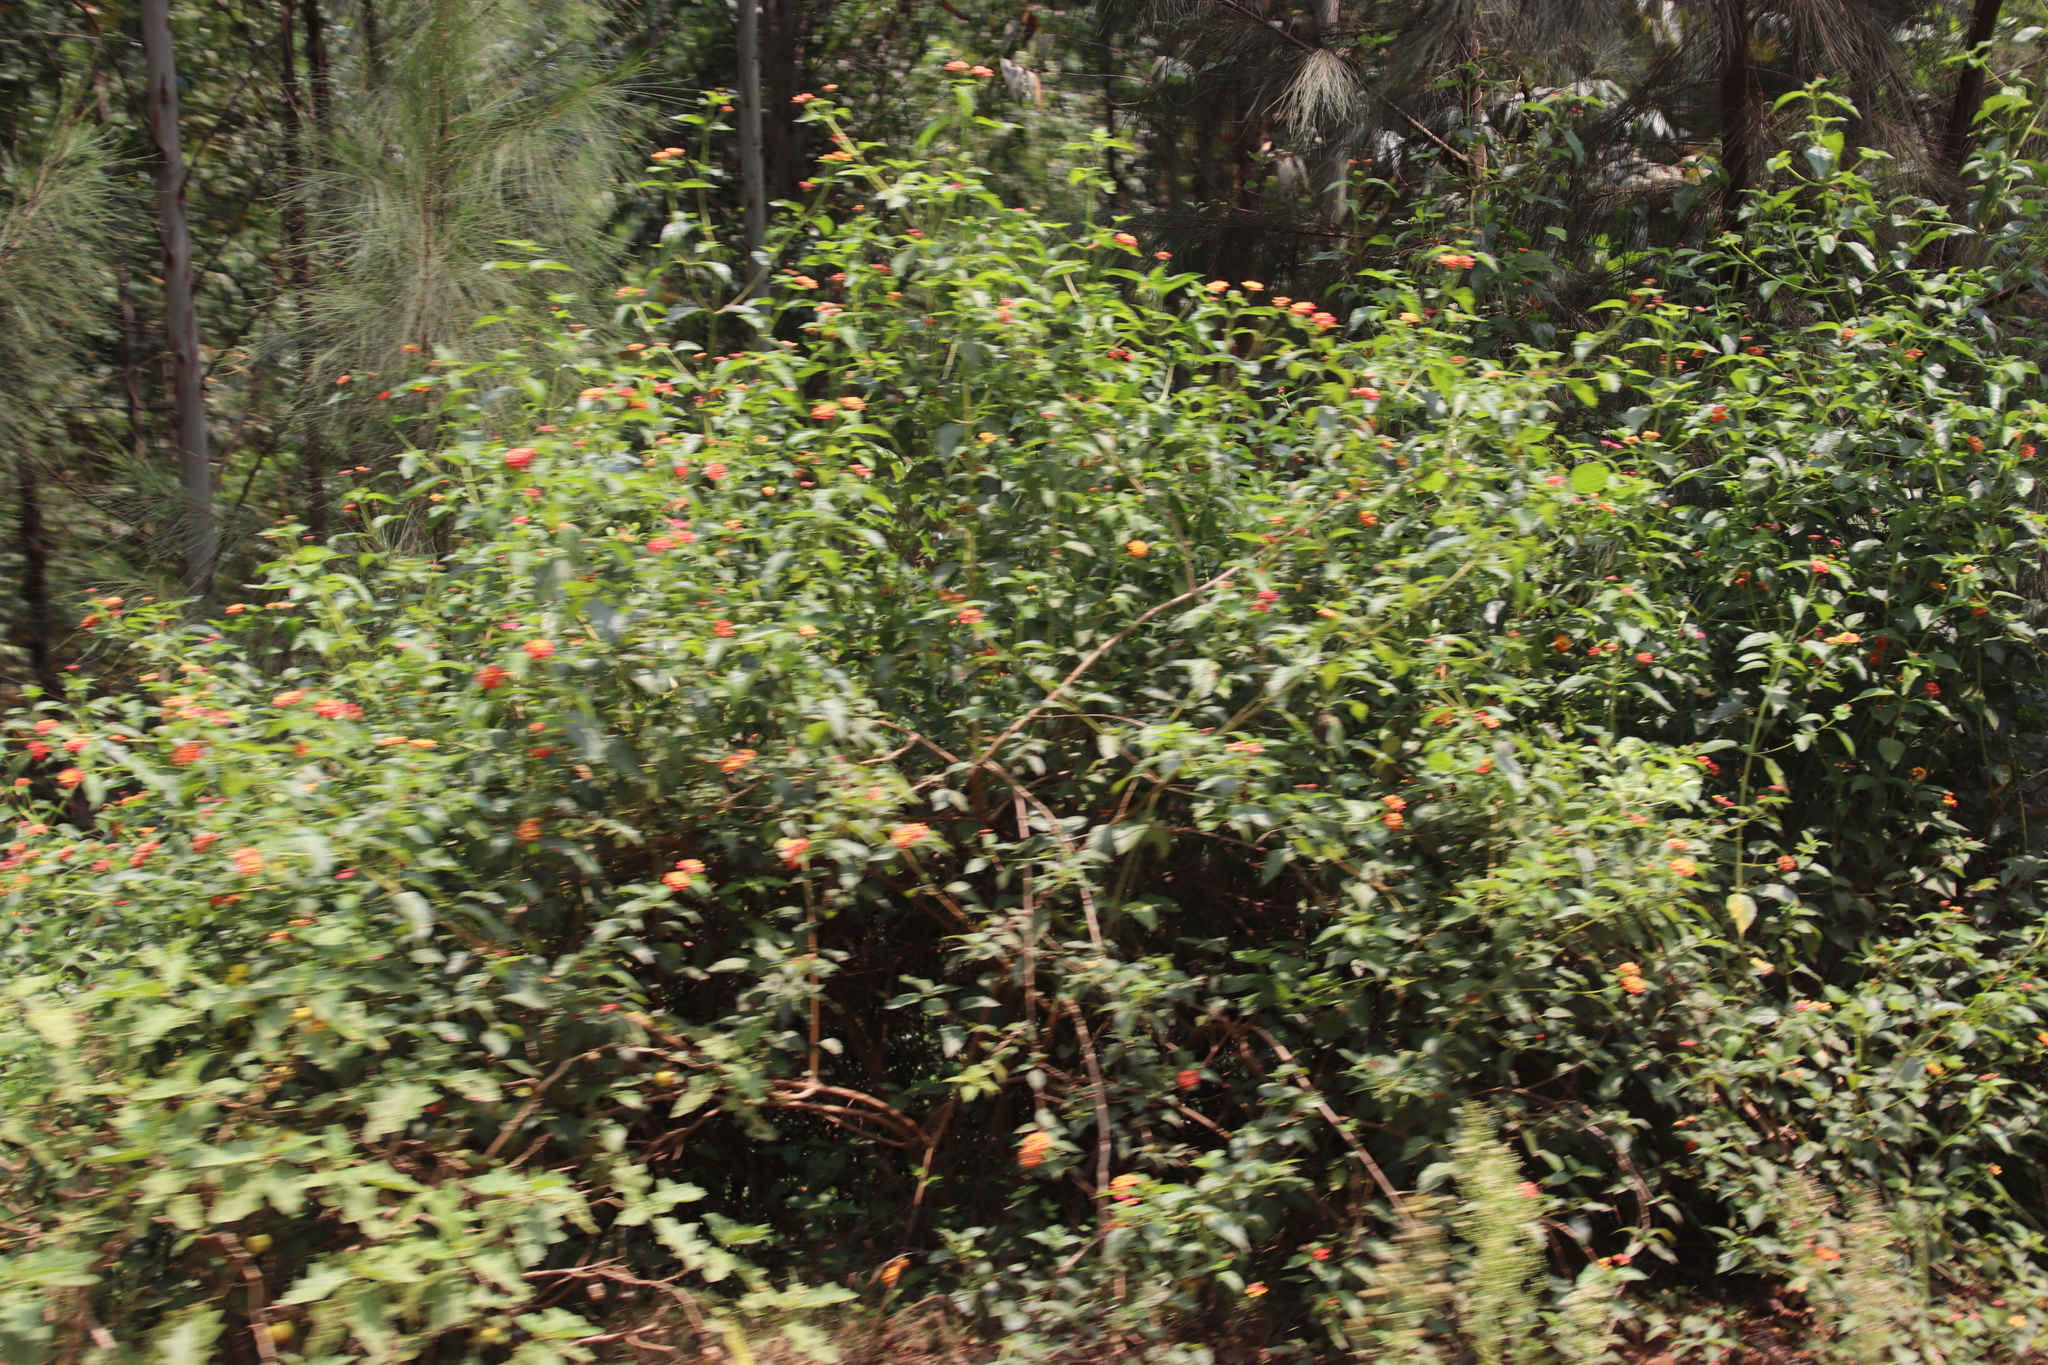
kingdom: Plantae
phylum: Tracheophyta
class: Magnoliopsida
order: Lamiales
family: Verbenaceae
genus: Lantana
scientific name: Lantana camara
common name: Lantana
